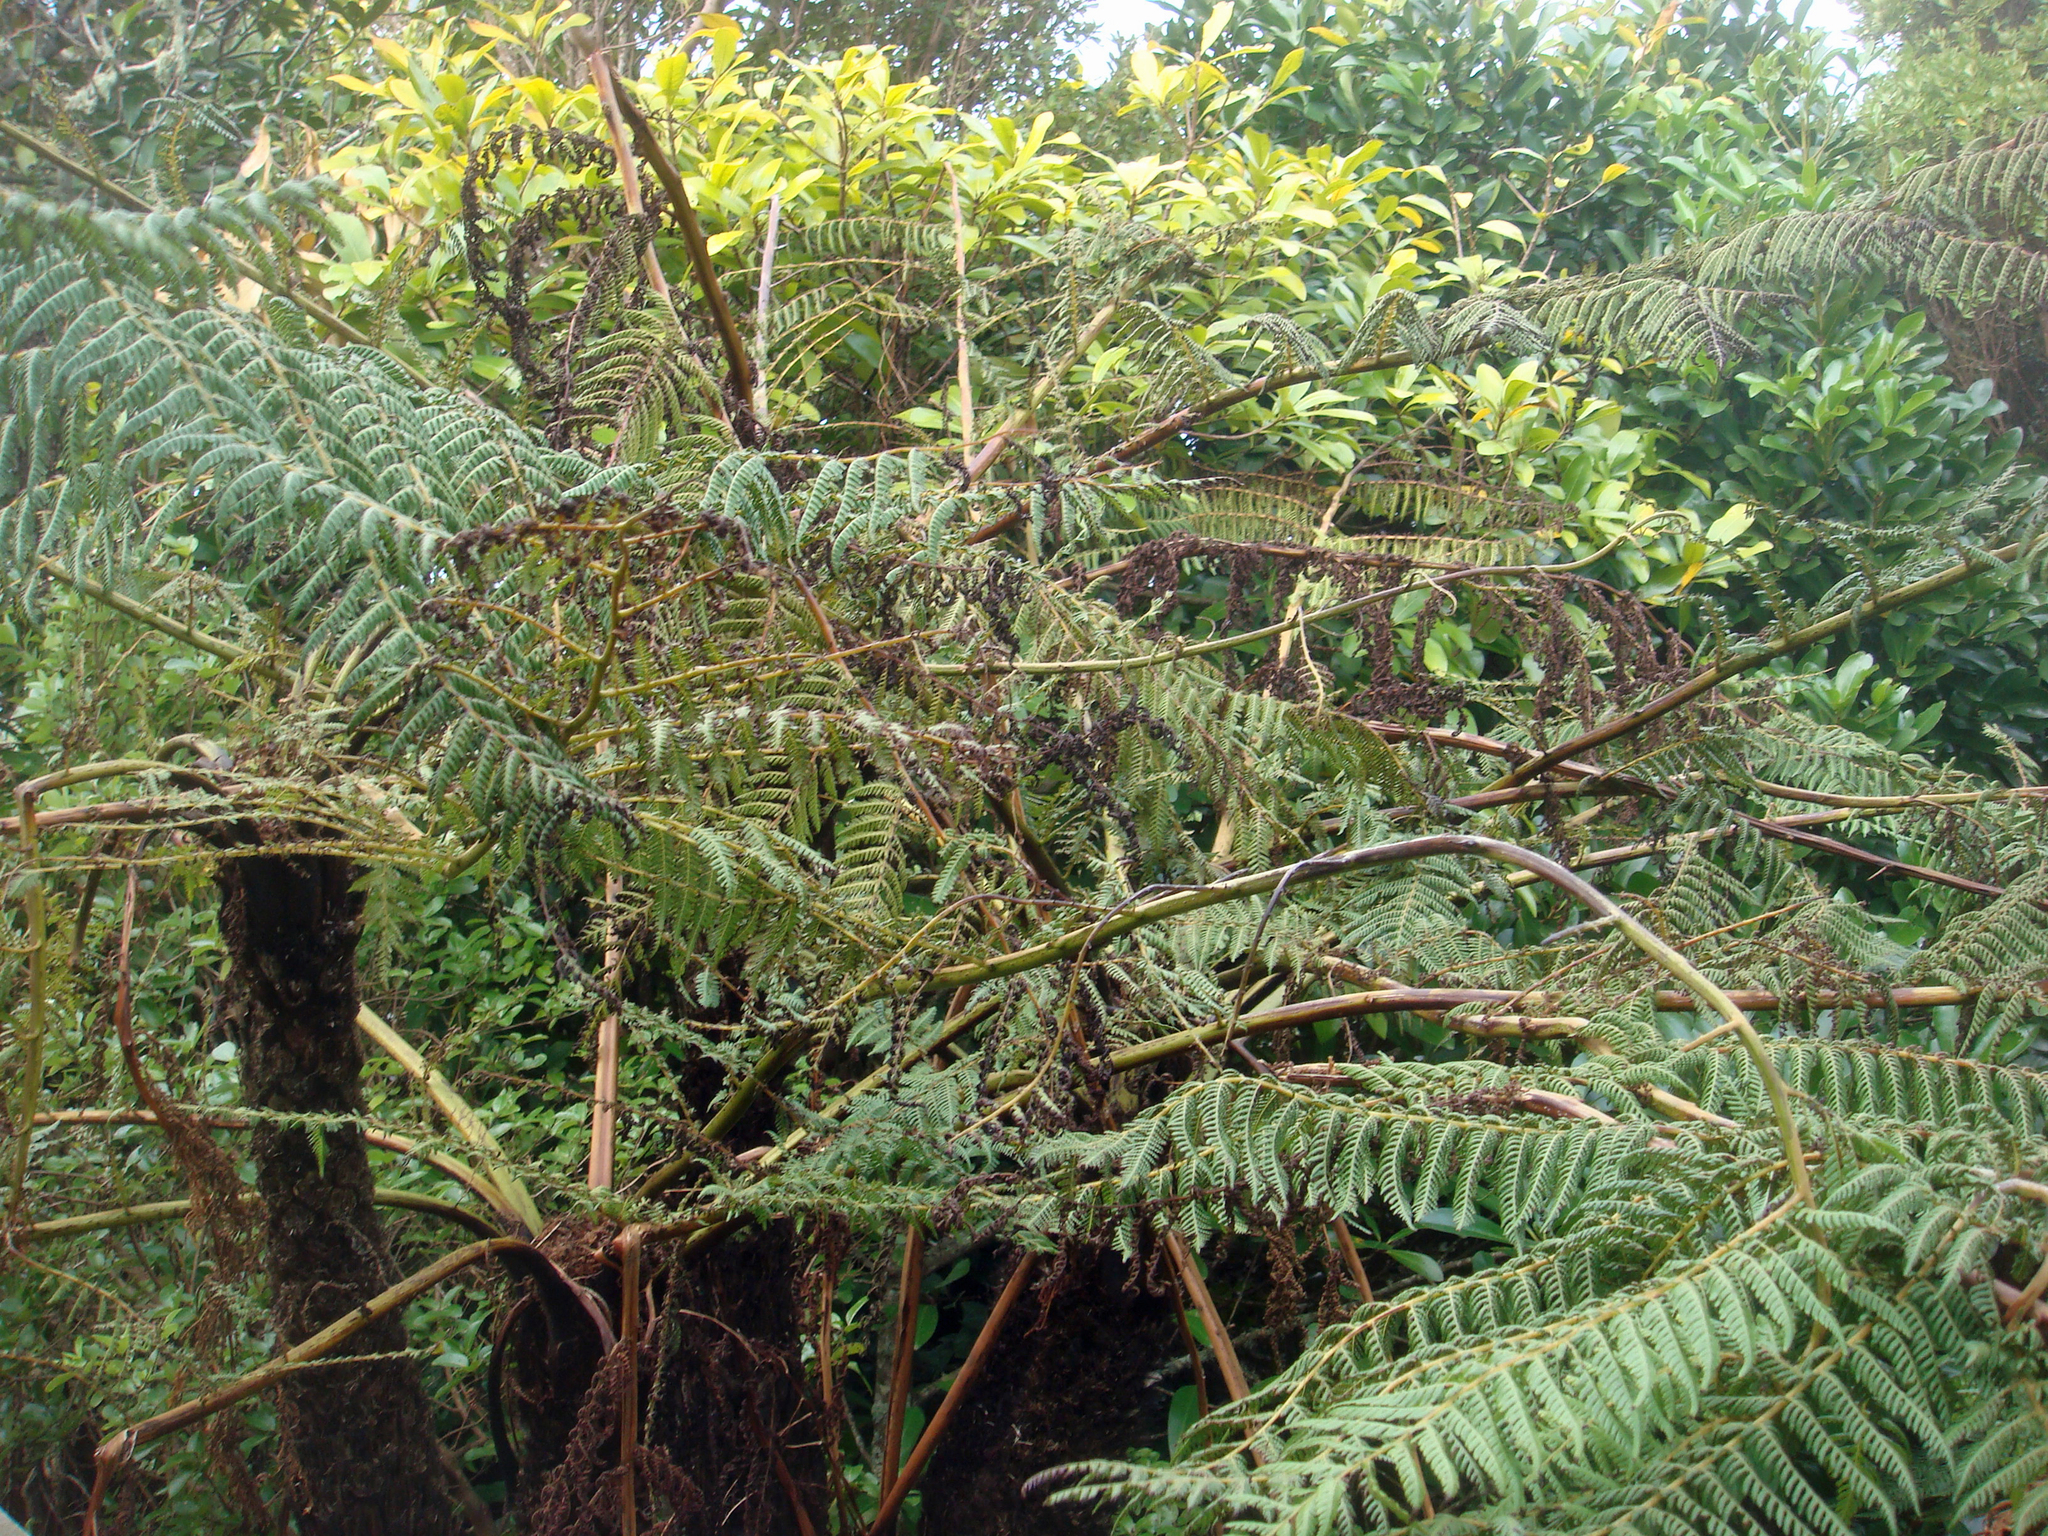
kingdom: Plantae
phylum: Tracheophyta
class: Polypodiopsida
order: Cyatheales
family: Cyatheaceae
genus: Cyathea
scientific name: Cyathea cunninghamii
